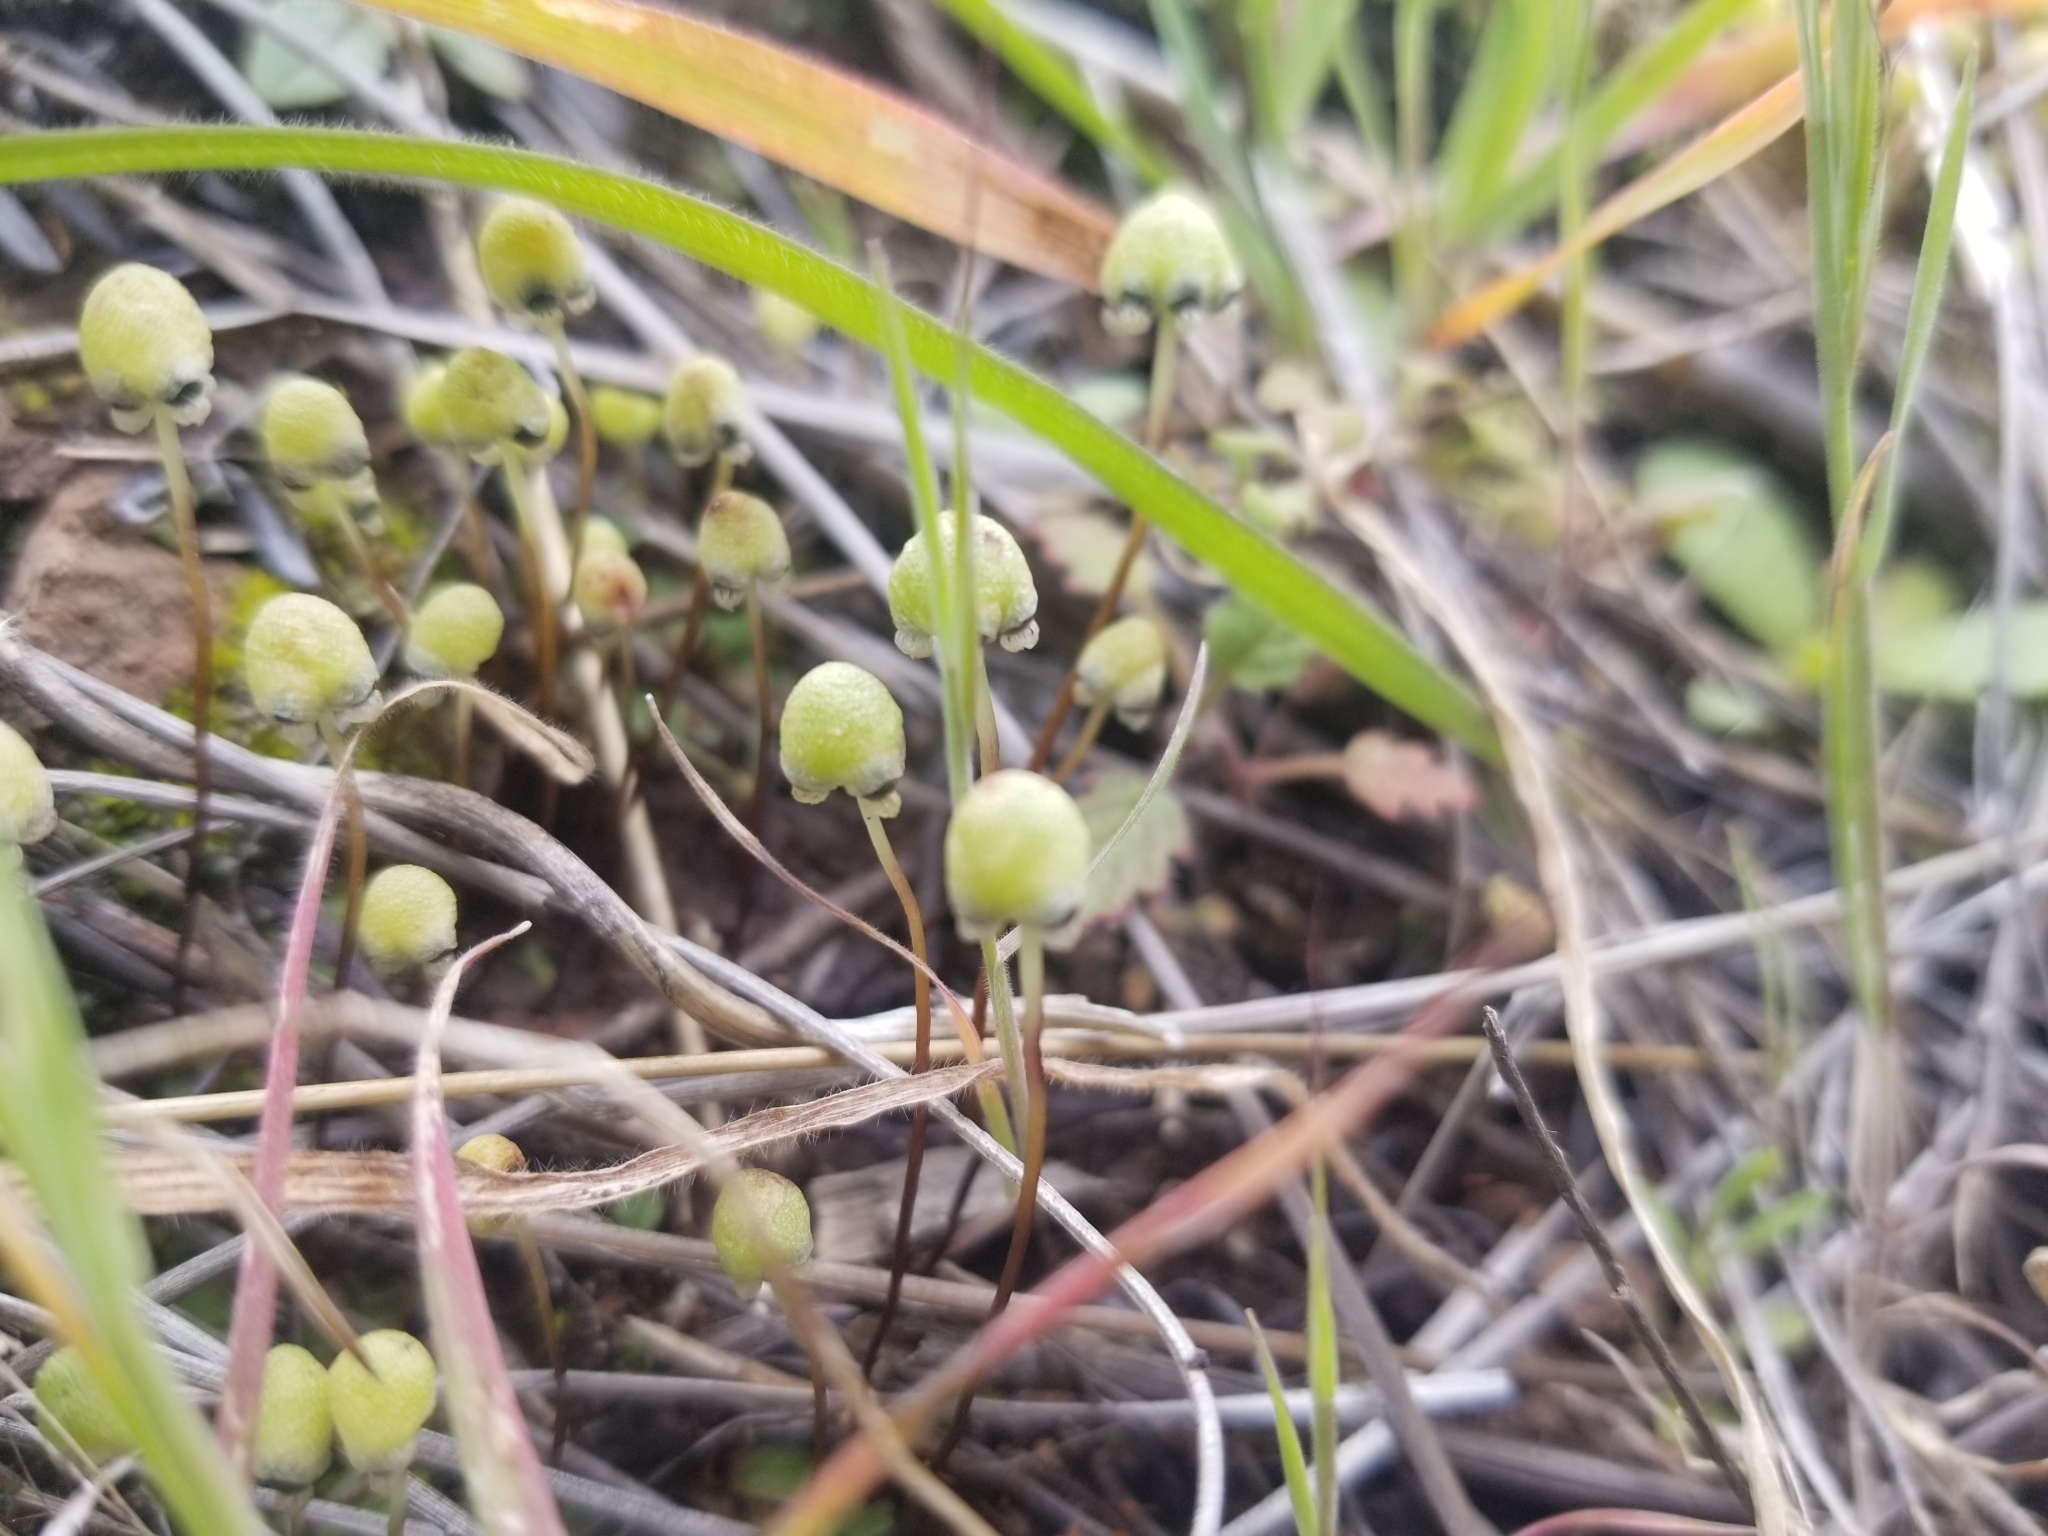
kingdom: Plantae
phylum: Marchantiophyta
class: Marchantiopsida
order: Marchantiales
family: Aytoniaceae
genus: Asterella
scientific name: Asterella palmeri
